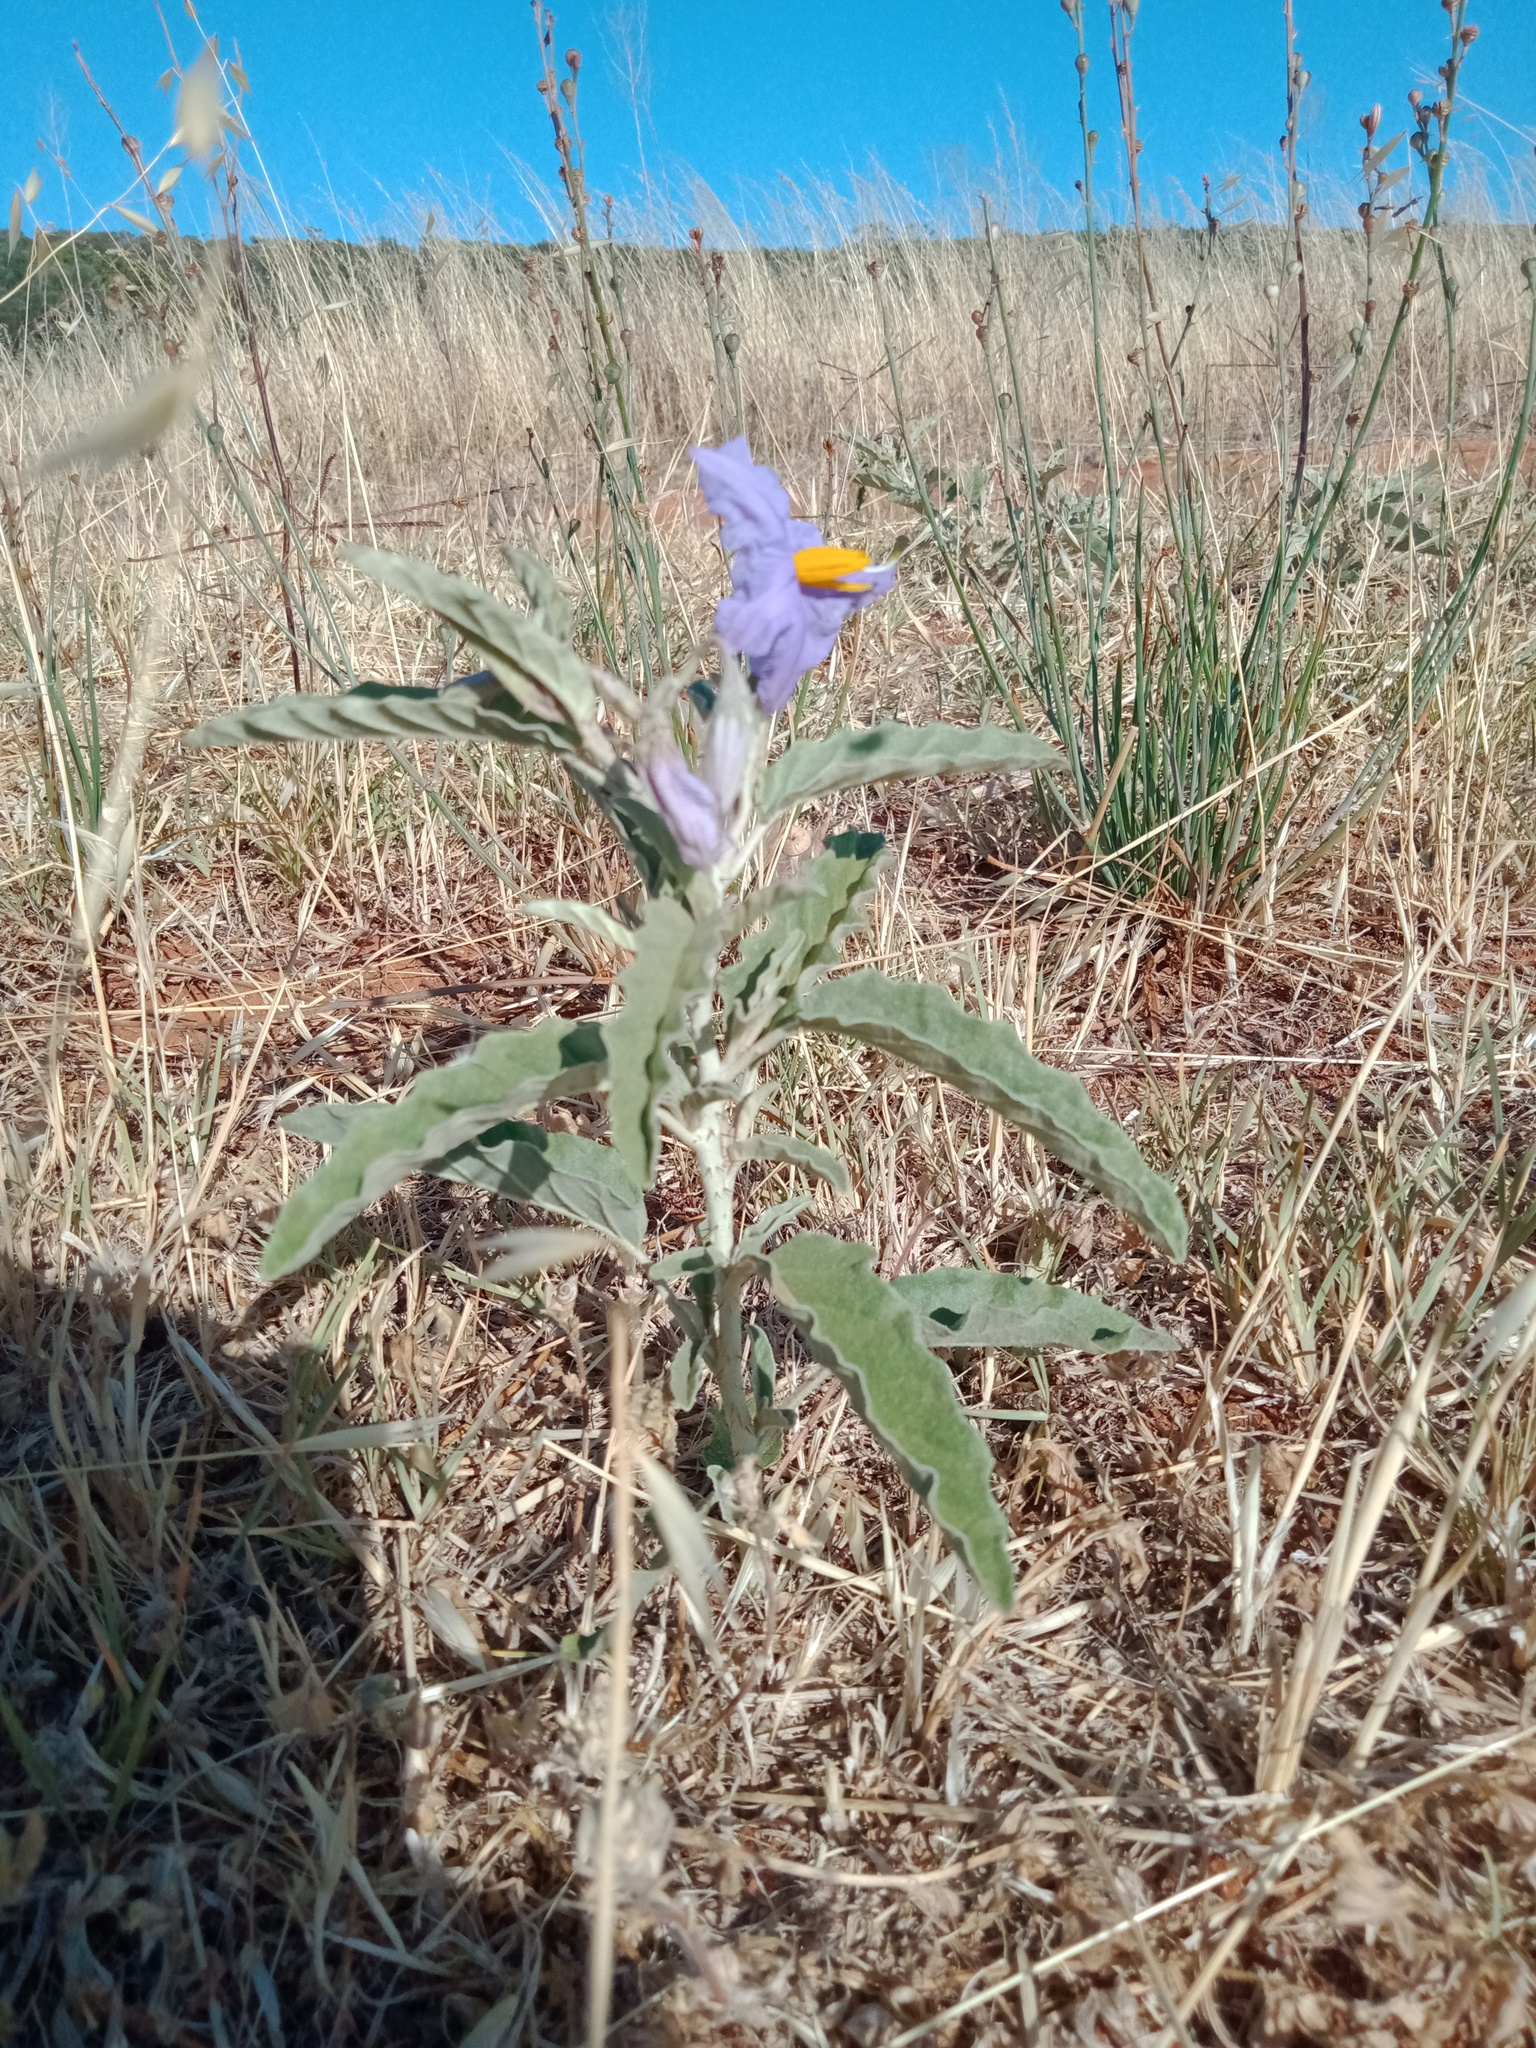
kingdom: Plantae
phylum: Tracheophyta
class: Magnoliopsida
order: Solanales
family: Solanaceae
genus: Solanum
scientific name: Solanum elaeagnifolium
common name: Silverleaf nightshade
